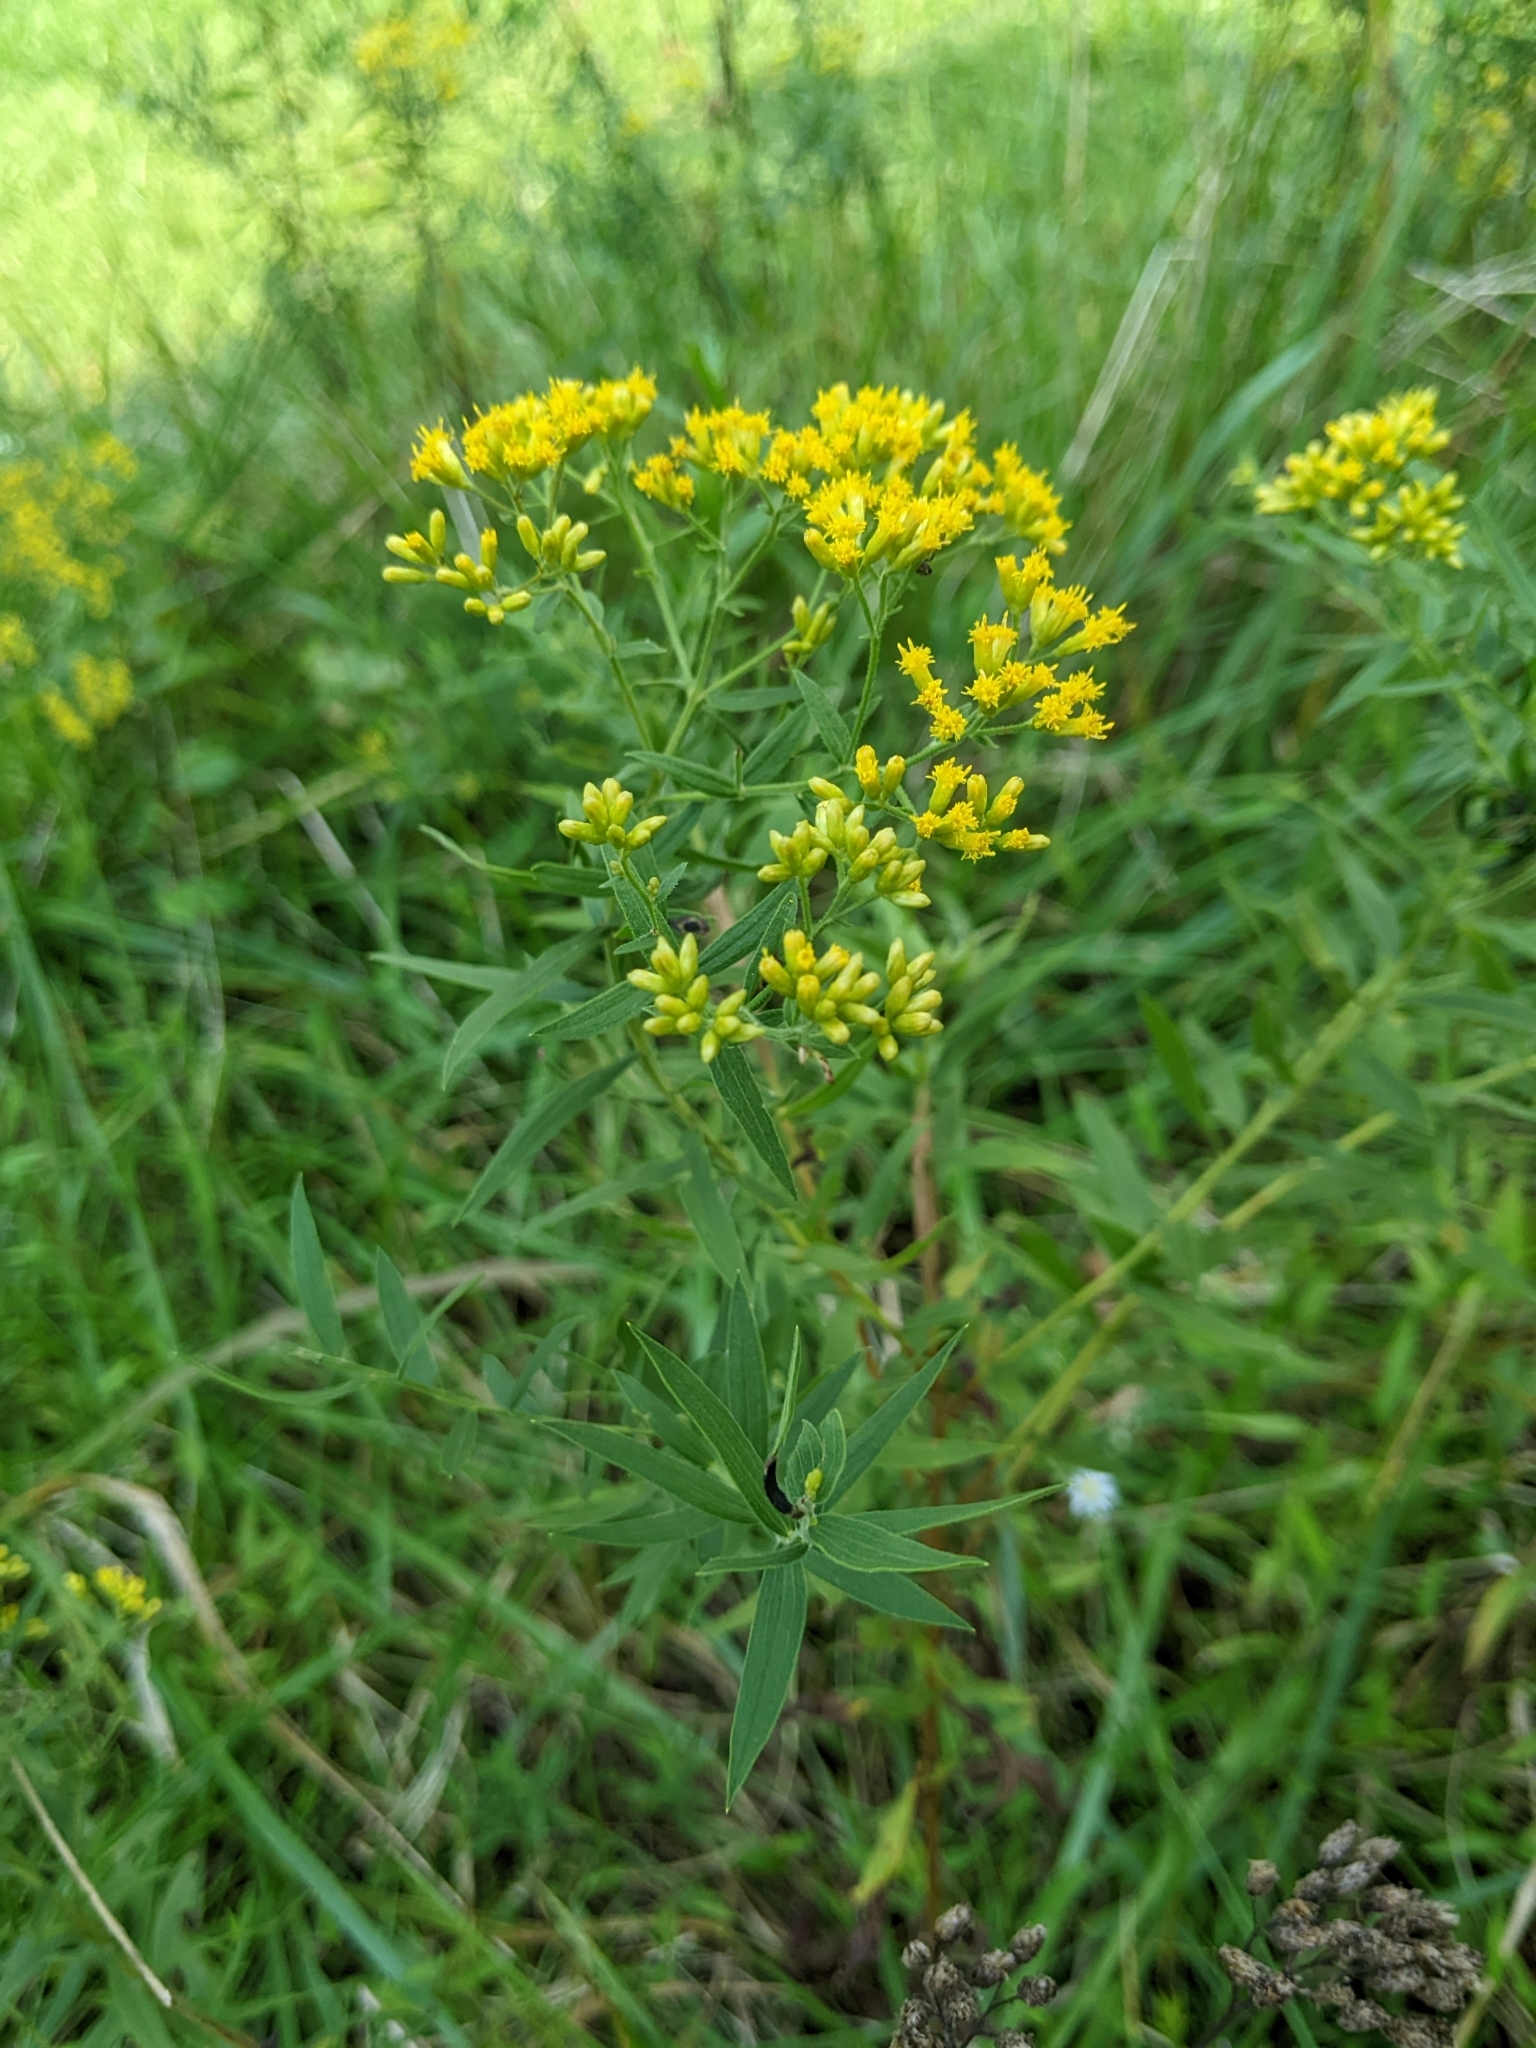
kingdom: Animalia
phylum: Arthropoda
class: Insecta
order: Diptera
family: Cecidomyiidae
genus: Asteromyia
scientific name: Asteromyia euthamiae
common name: Euthamia leaf gall midge
